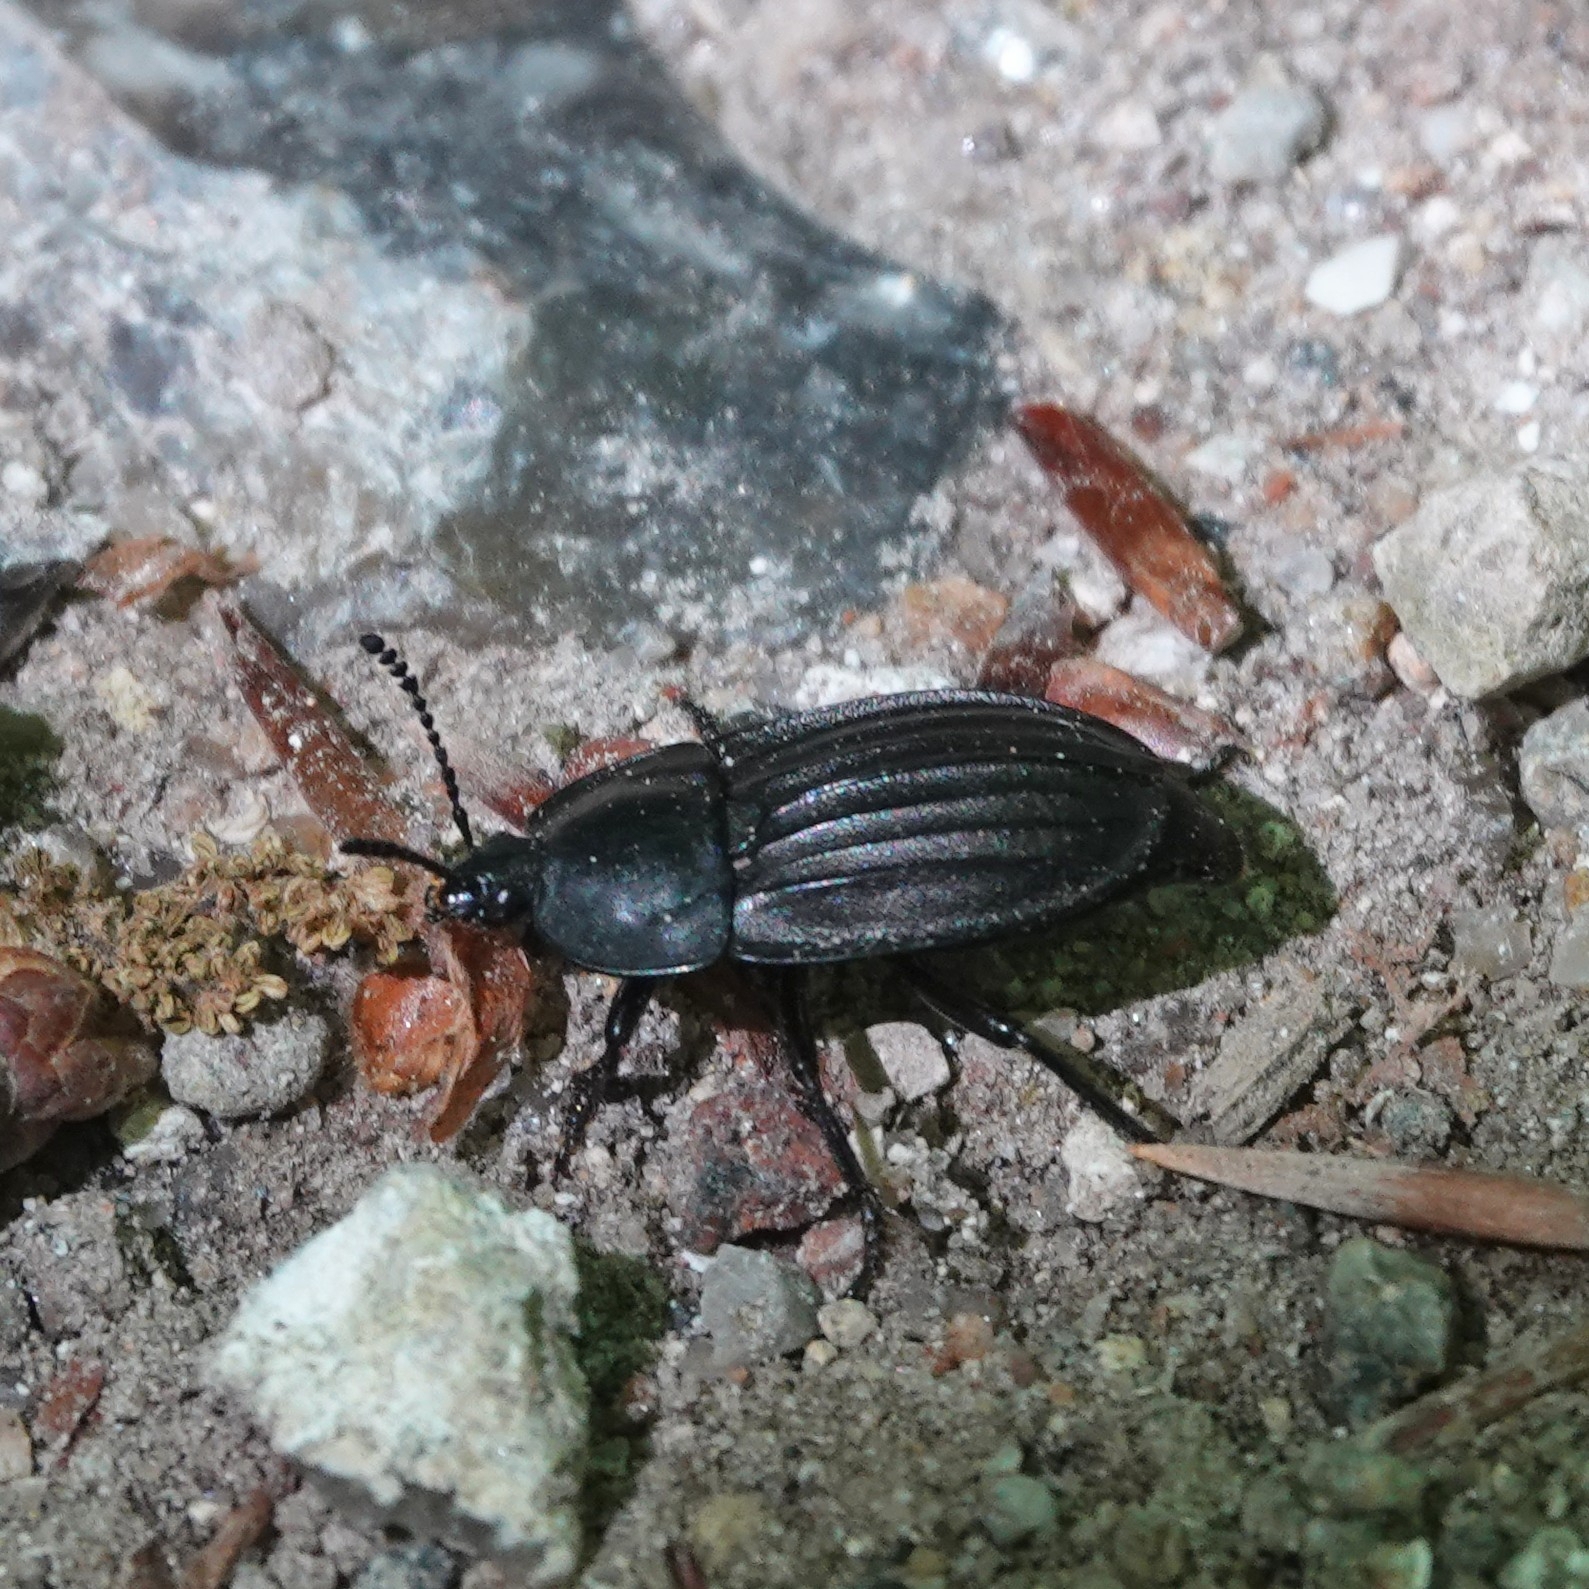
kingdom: Animalia
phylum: Arthropoda
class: Insecta
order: Coleoptera
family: Staphylinidae
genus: Silpha
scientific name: Silpha carinata
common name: Silphid beetle
